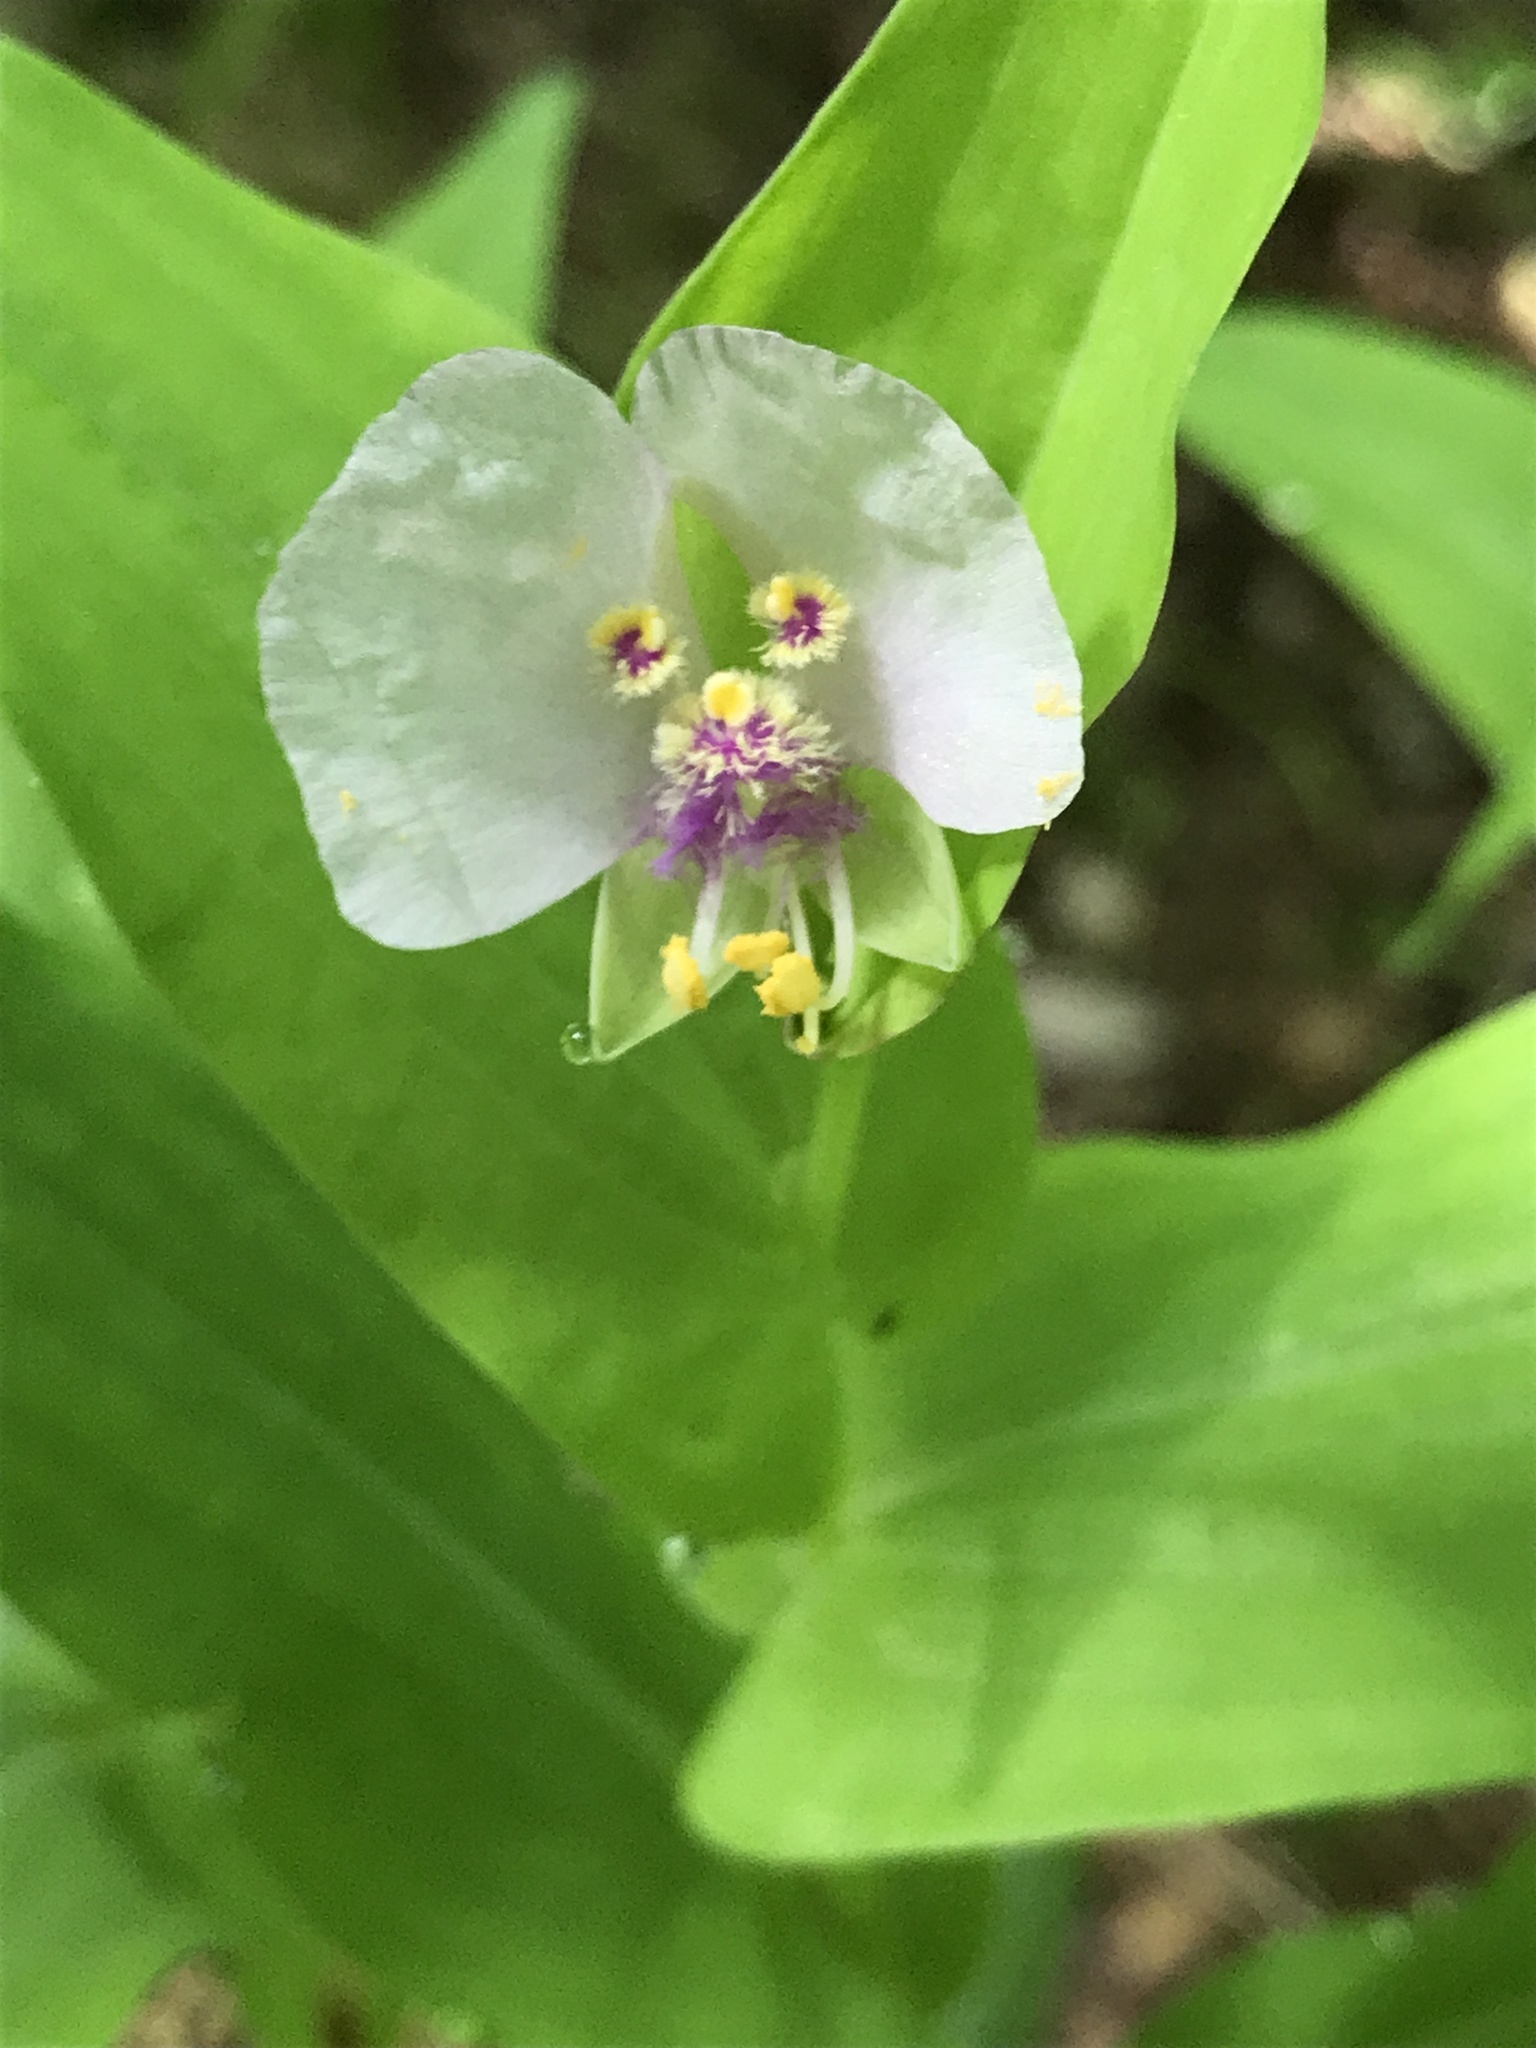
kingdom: Plantae
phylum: Tracheophyta
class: Liliopsida
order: Commelinales
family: Commelinaceae
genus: Tinantia
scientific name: Tinantia anomala
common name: False dayflower
